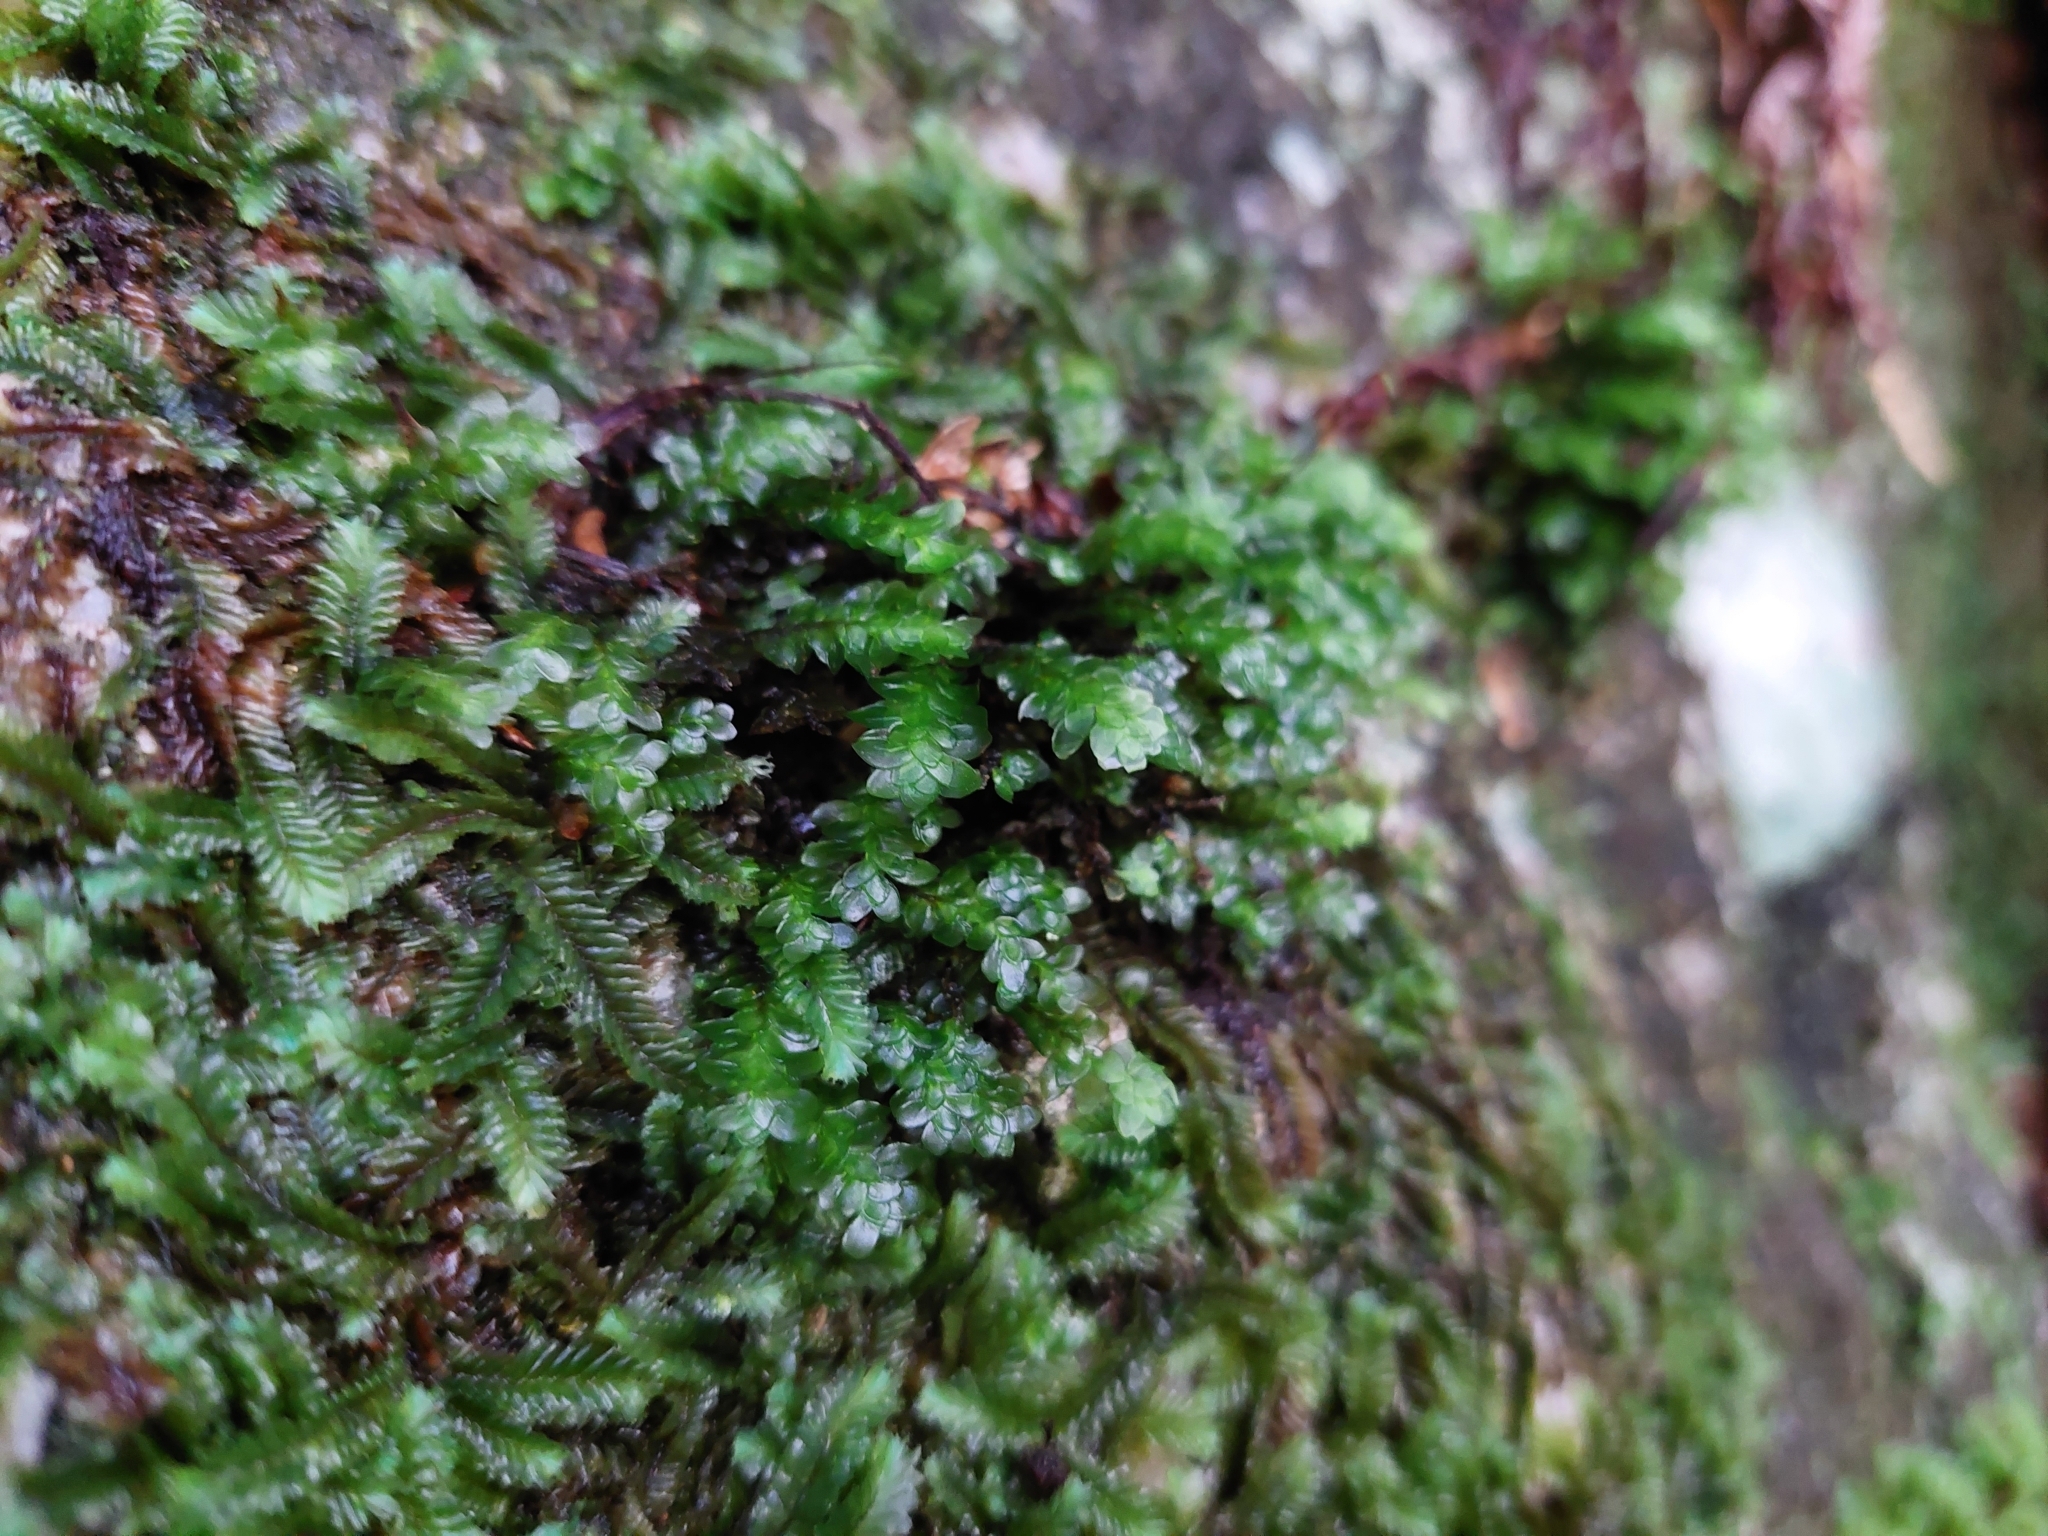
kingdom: Plantae
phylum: Bryophyta
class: Bryopsida
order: Hookeriales
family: Daltoniaceae
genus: Achrophyllum
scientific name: Achrophyllum dentatum
